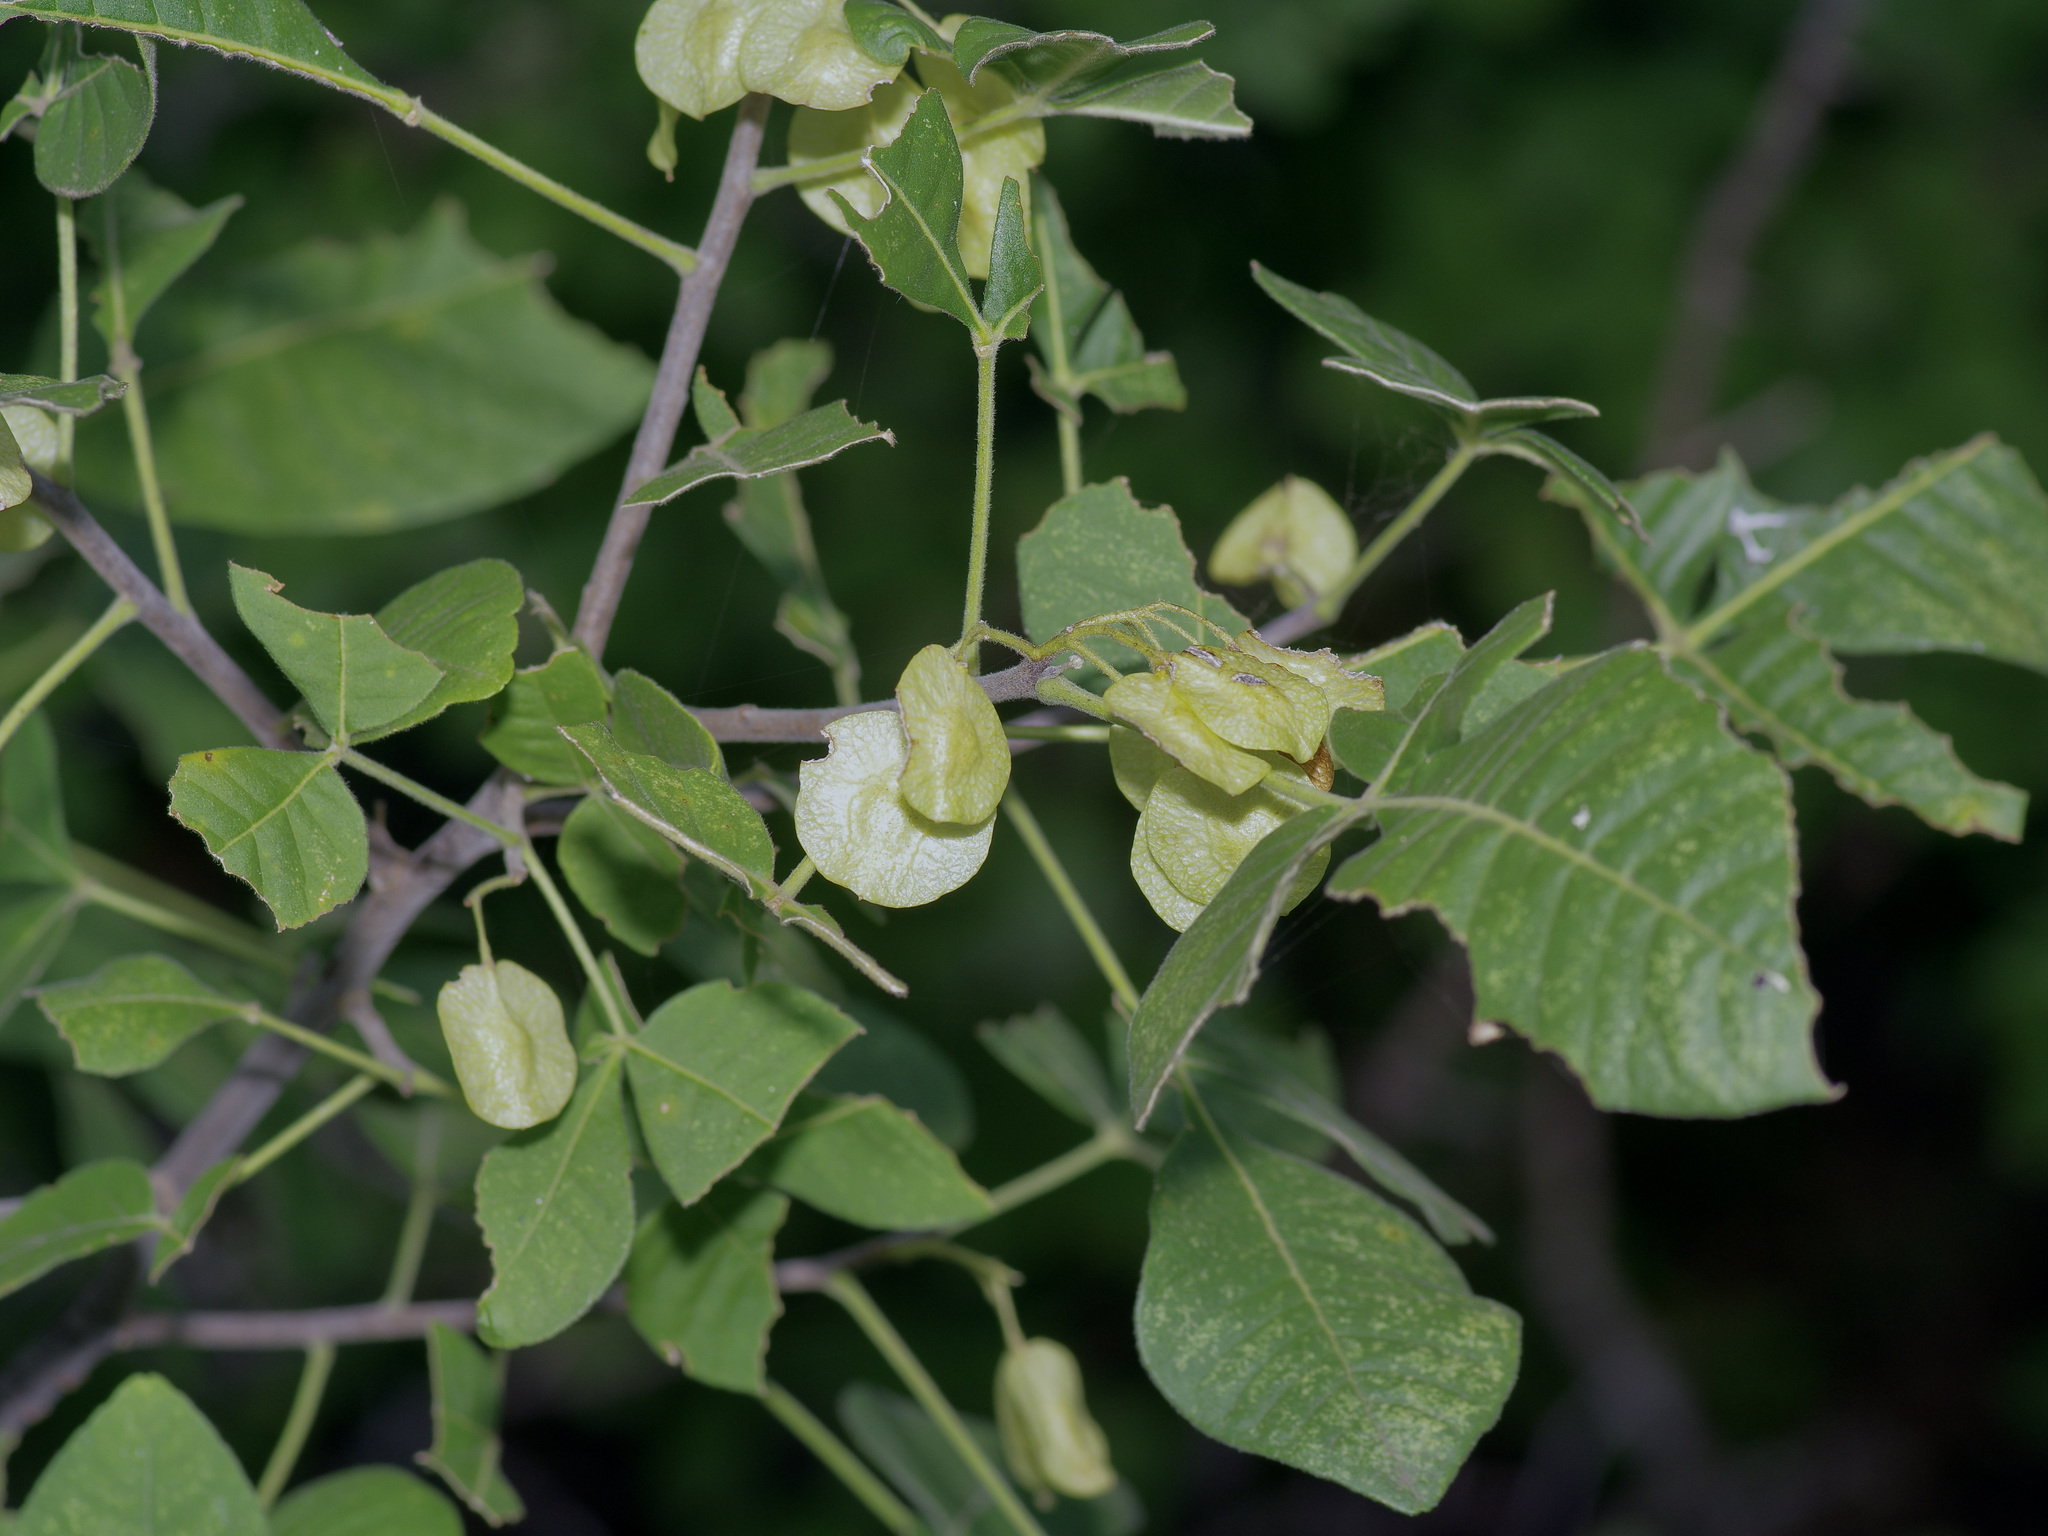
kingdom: Plantae
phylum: Tracheophyta
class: Magnoliopsida
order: Sapindales
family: Rutaceae
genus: Ptelea
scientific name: Ptelea trifoliata
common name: Common hop-tree
